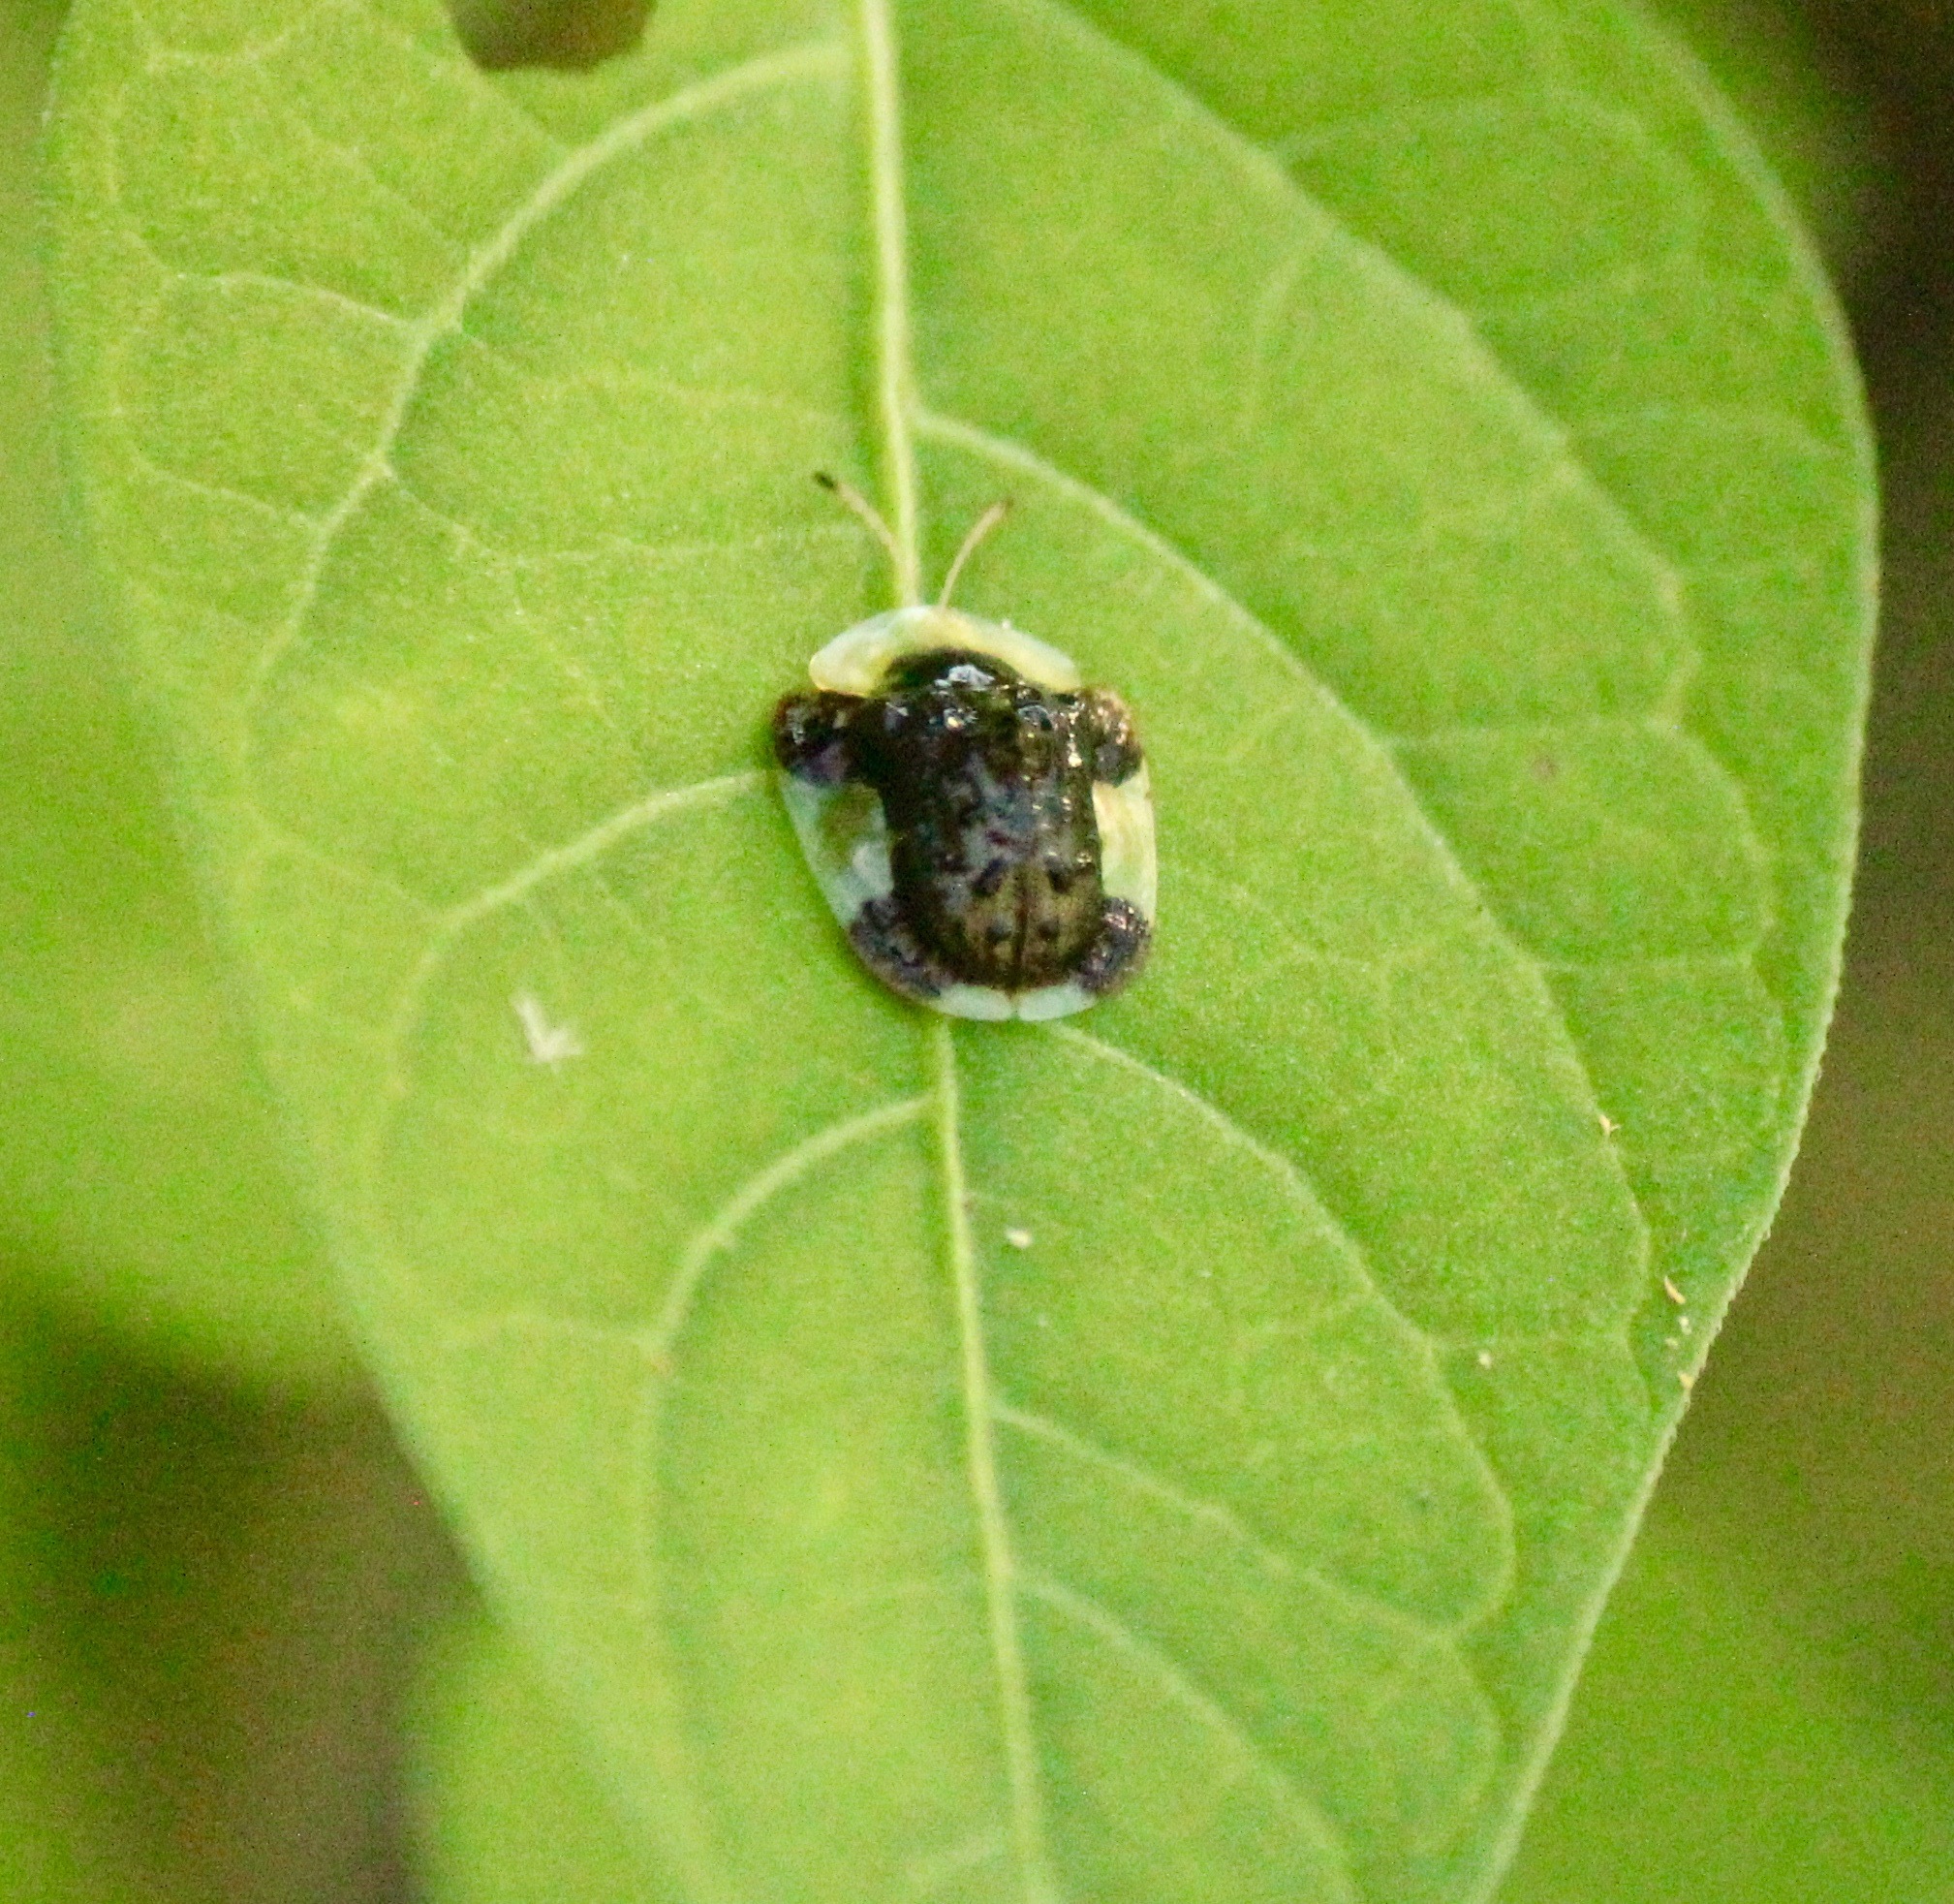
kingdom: Animalia
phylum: Arthropoda
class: Insecta
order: Coleoptera
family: Chrysomelidae
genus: Helocassis
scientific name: Helocassis clavata
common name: Clavate tortoise beetle
